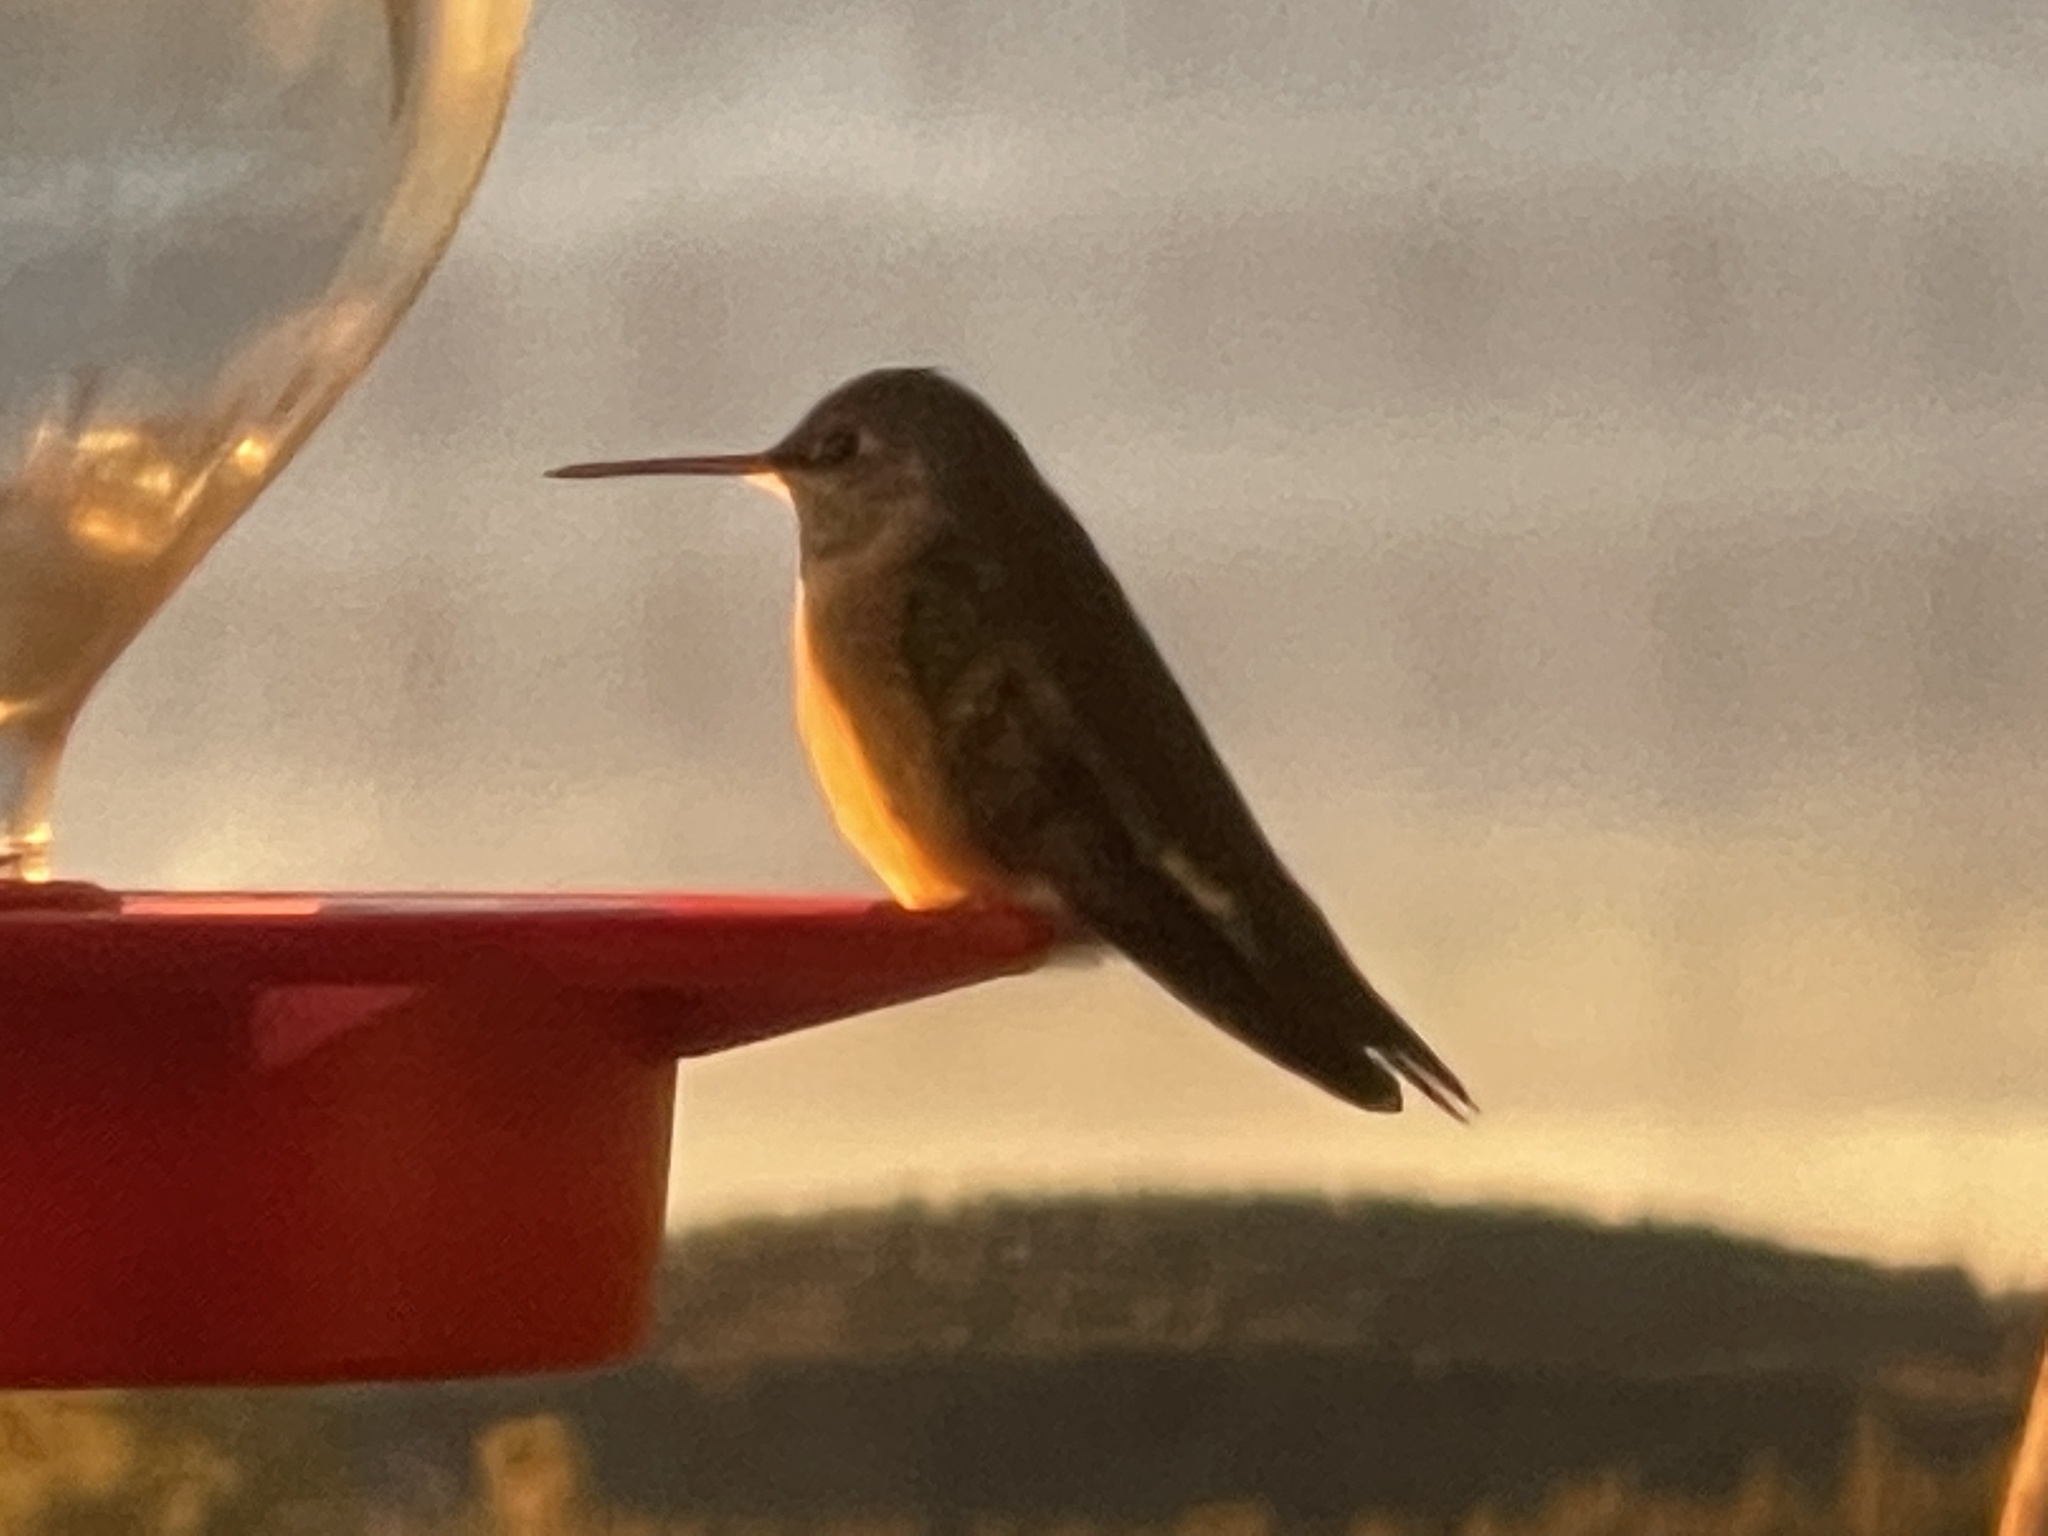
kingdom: Animalia
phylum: Chordata
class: Aves
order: Apodiformes
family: Trochilidae
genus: Selasphorus
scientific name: Selasphorus platycercus
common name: Broad-tailed hummingbird
